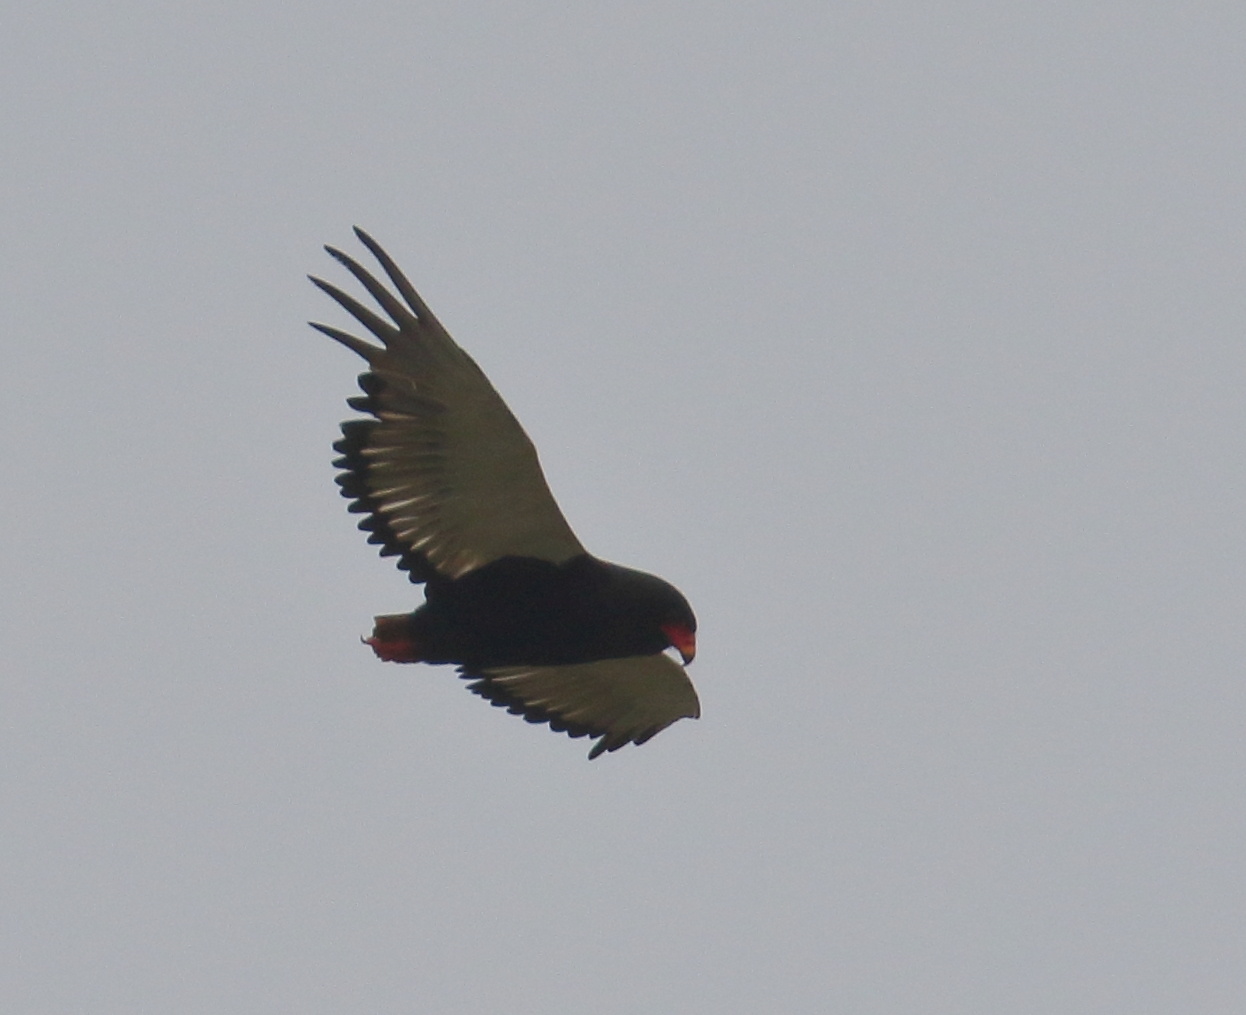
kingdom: Animalia
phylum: Chordata
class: Aves
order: Accipitriformes
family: Accipitridae
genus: Terathopius
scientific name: Terathopius ecaudatus
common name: Bateleur
